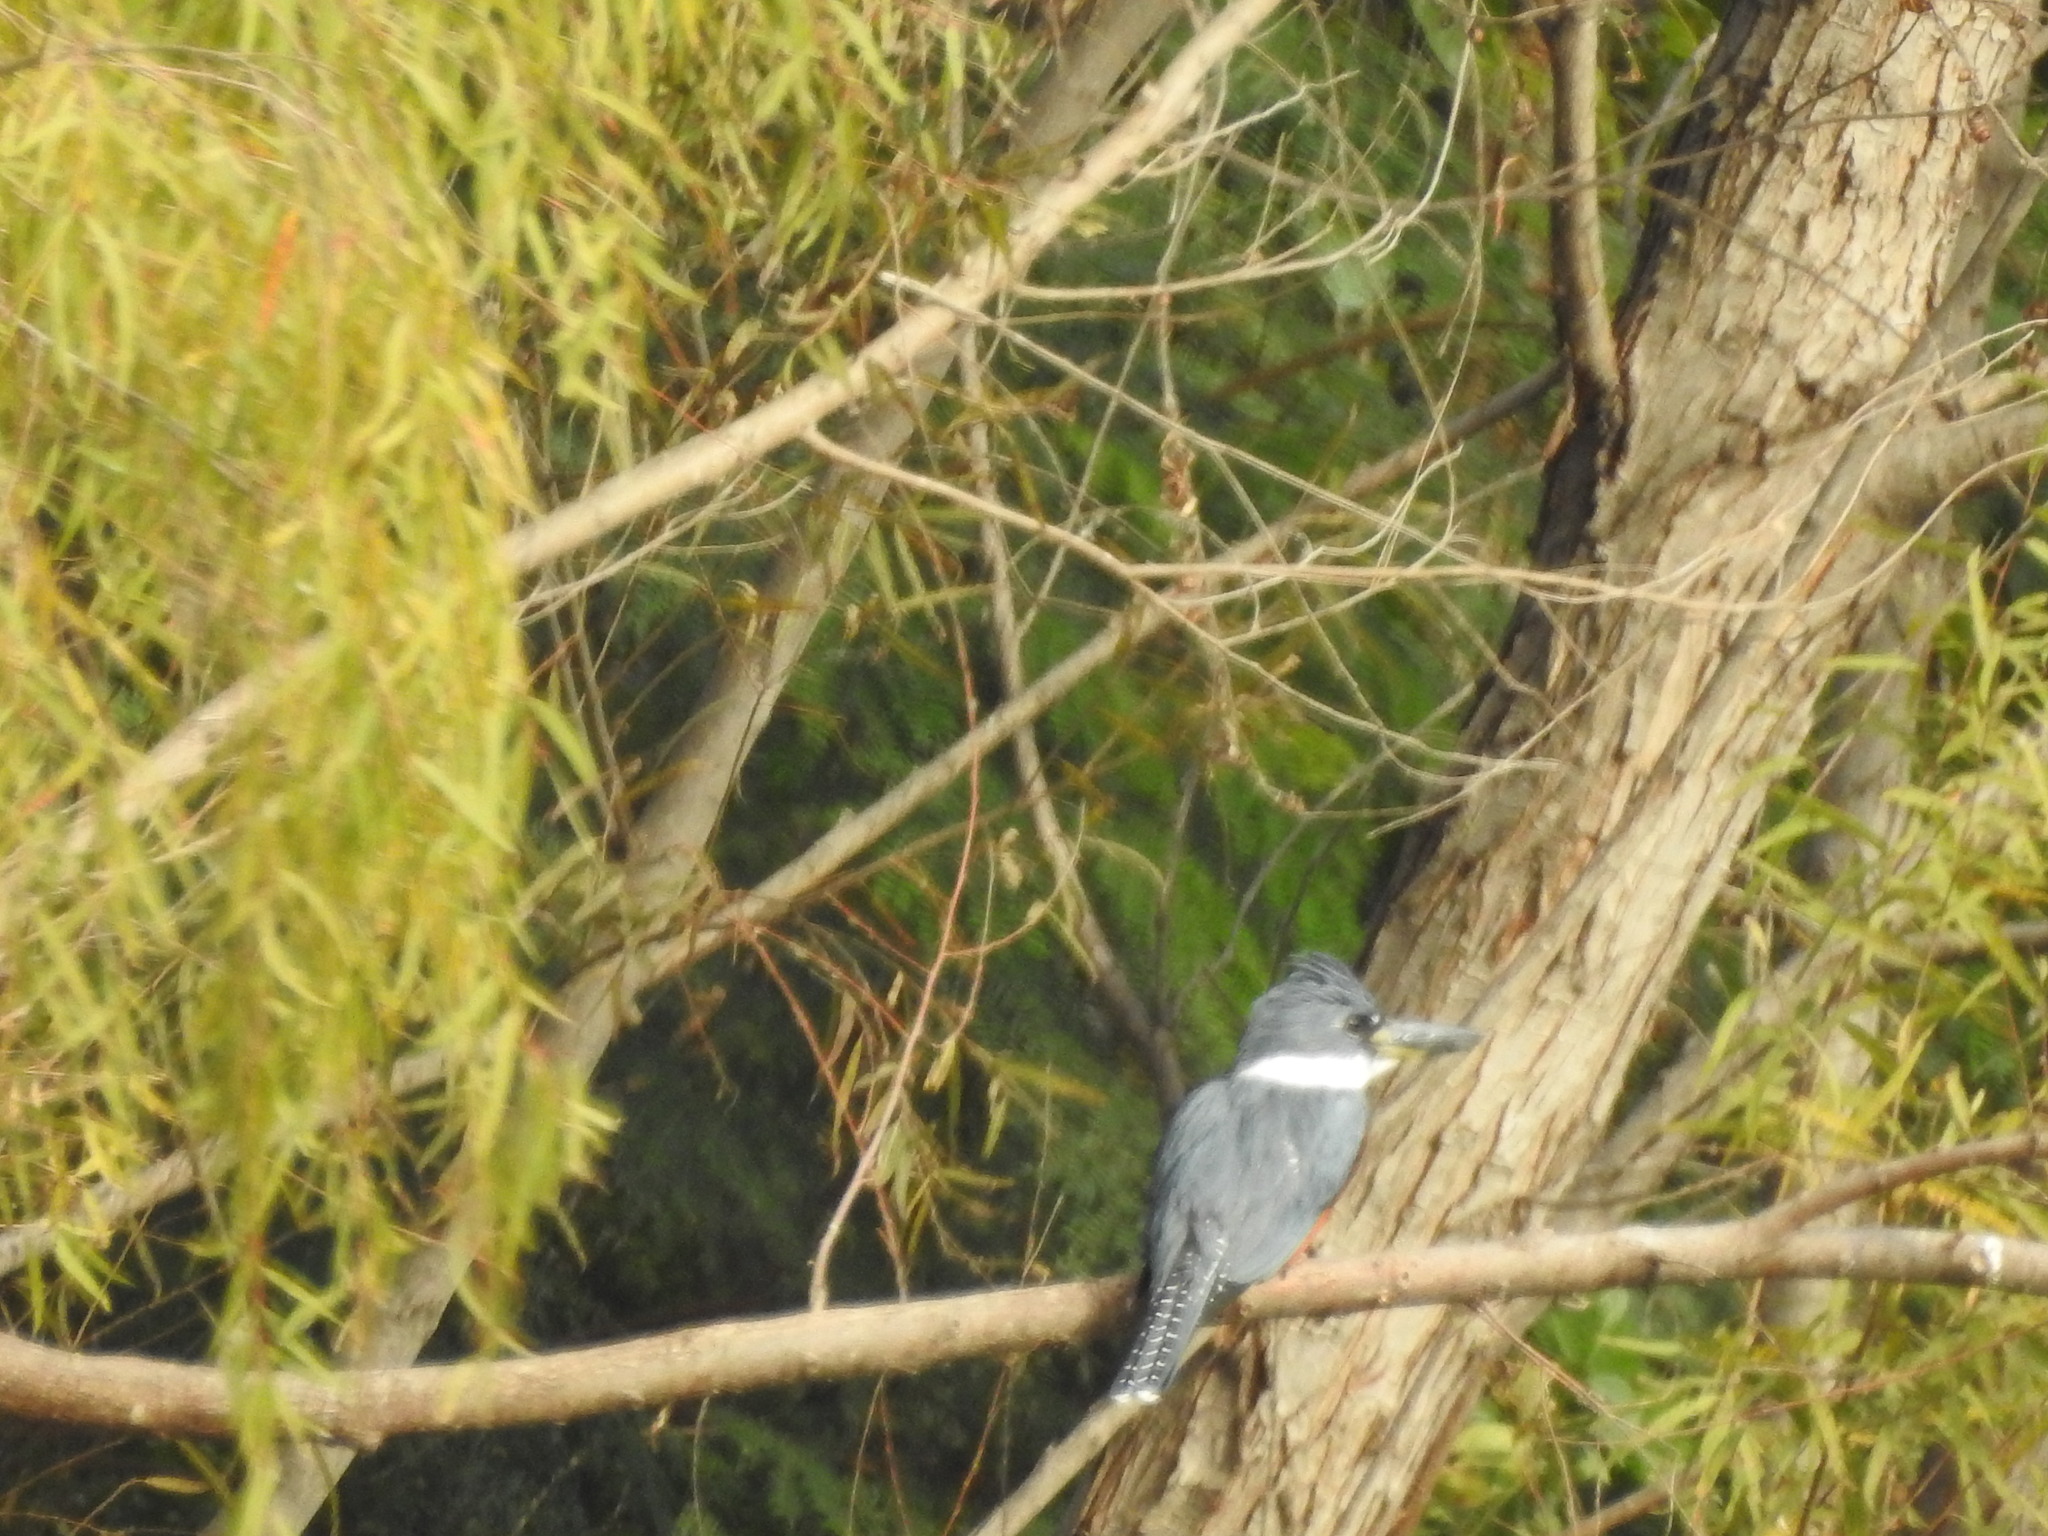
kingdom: Animalia
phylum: Chordata
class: Aves
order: Coraciiformes
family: Alcedinidae
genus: Megaceryle
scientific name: Megaceryle torquata
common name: Ringed kingfisher
